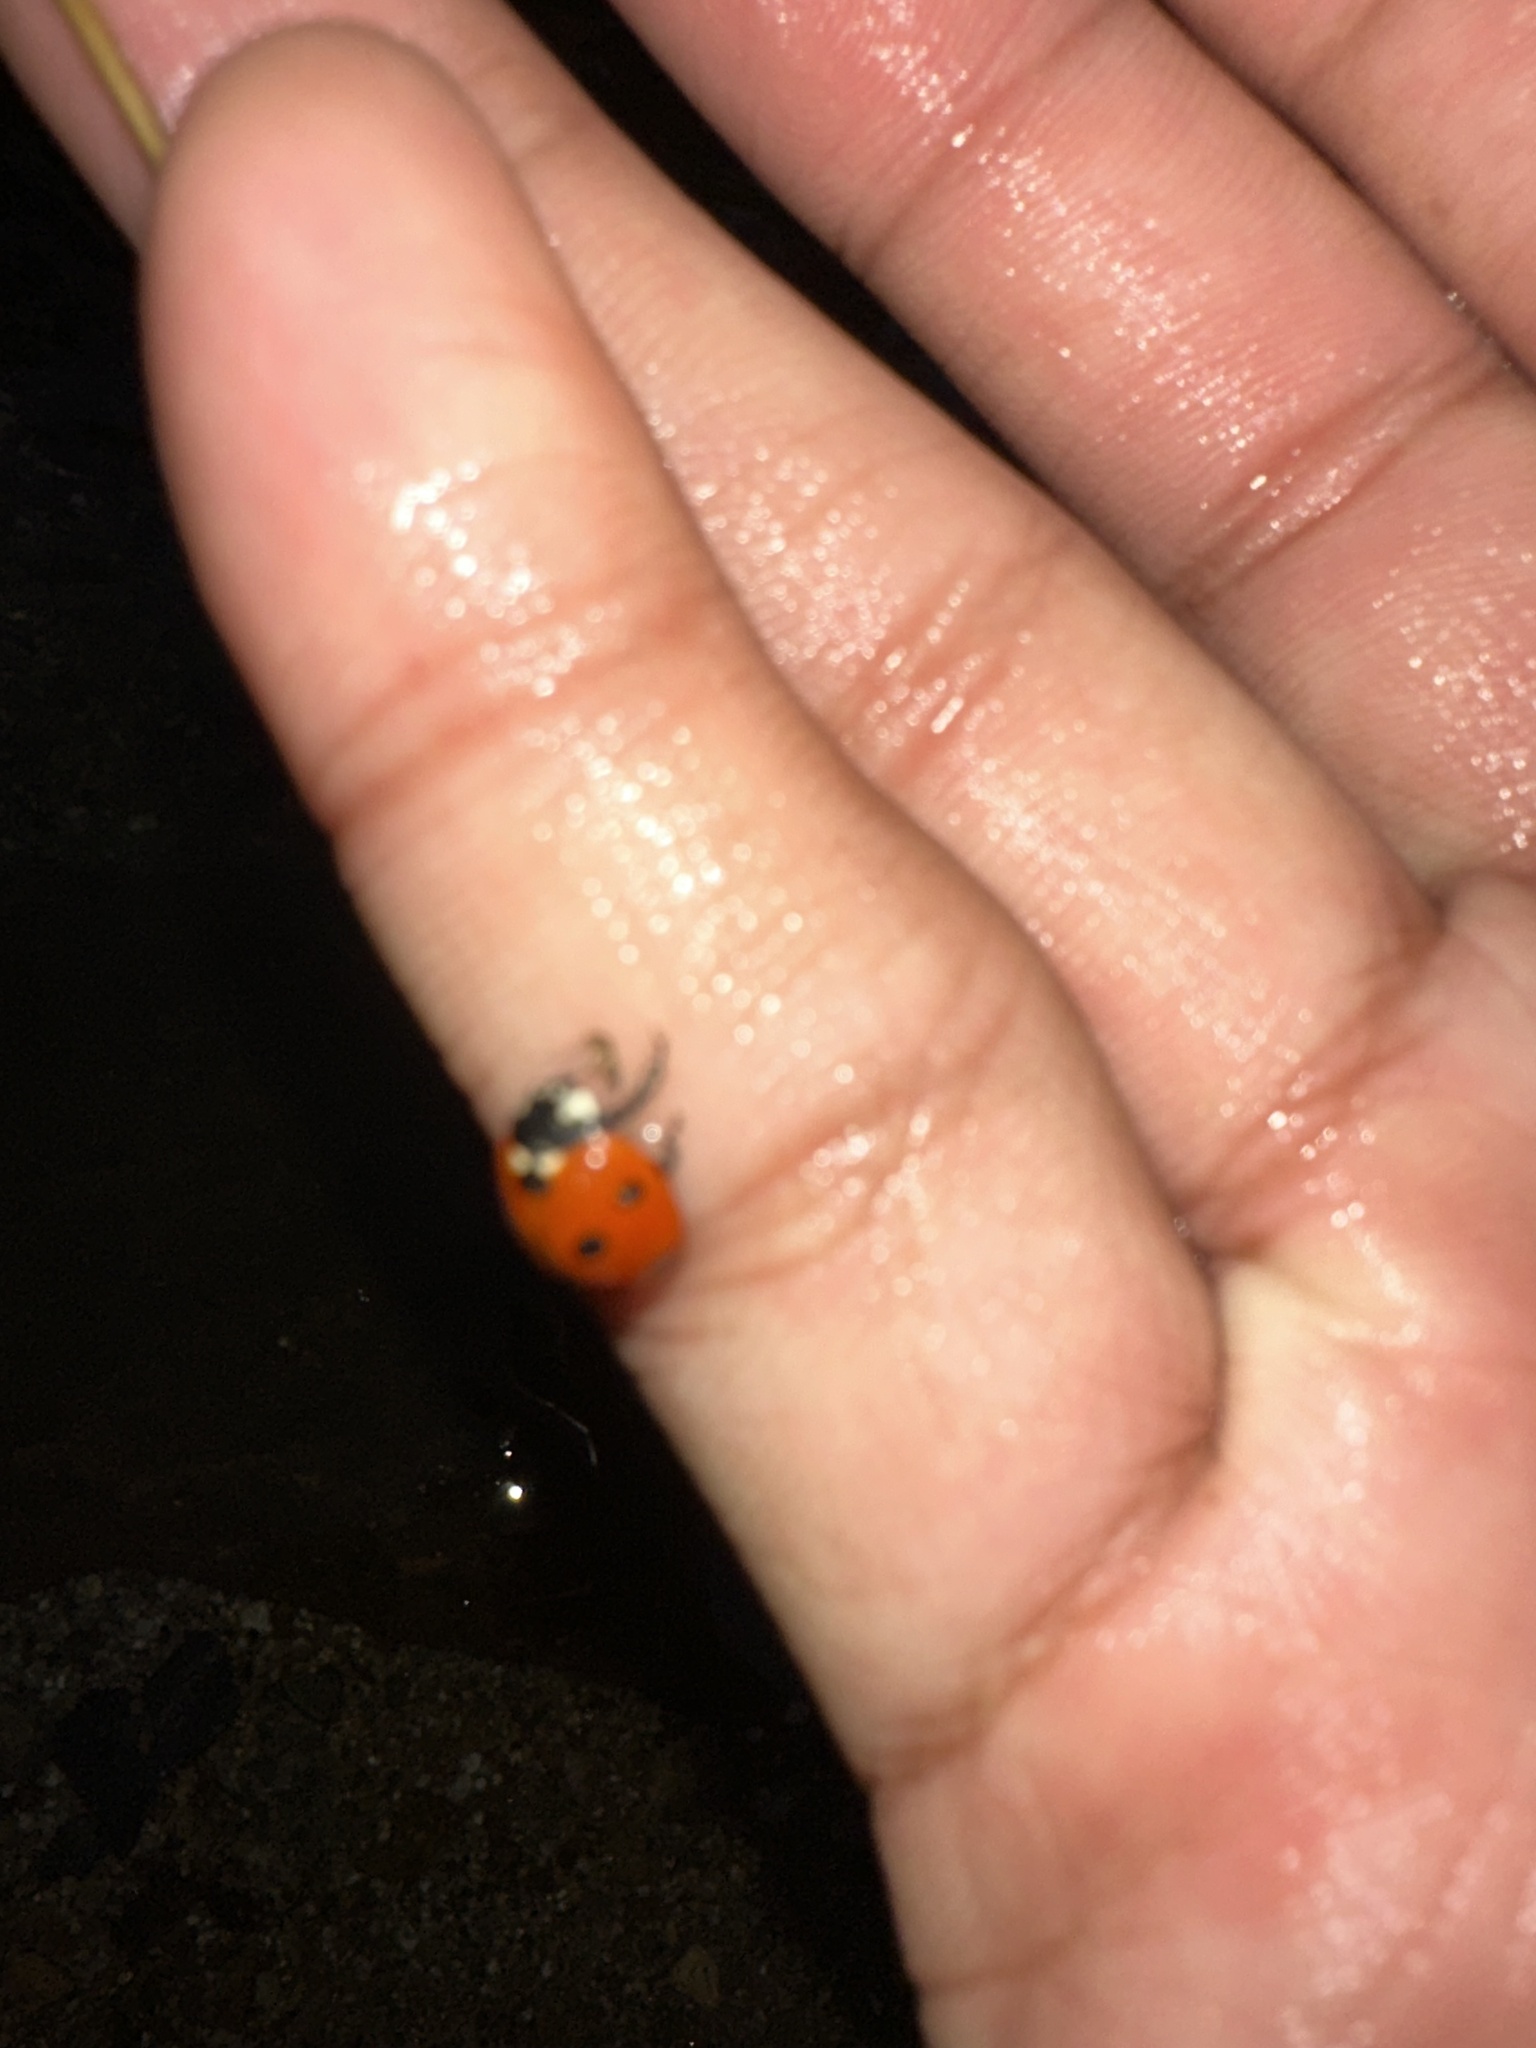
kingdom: Animalia
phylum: Arthropoda
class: Insecta
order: Coleoptera
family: Coccinellidae
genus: Coccinella
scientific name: Coccinella septempunctata
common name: Sevenspotted lady beetle
